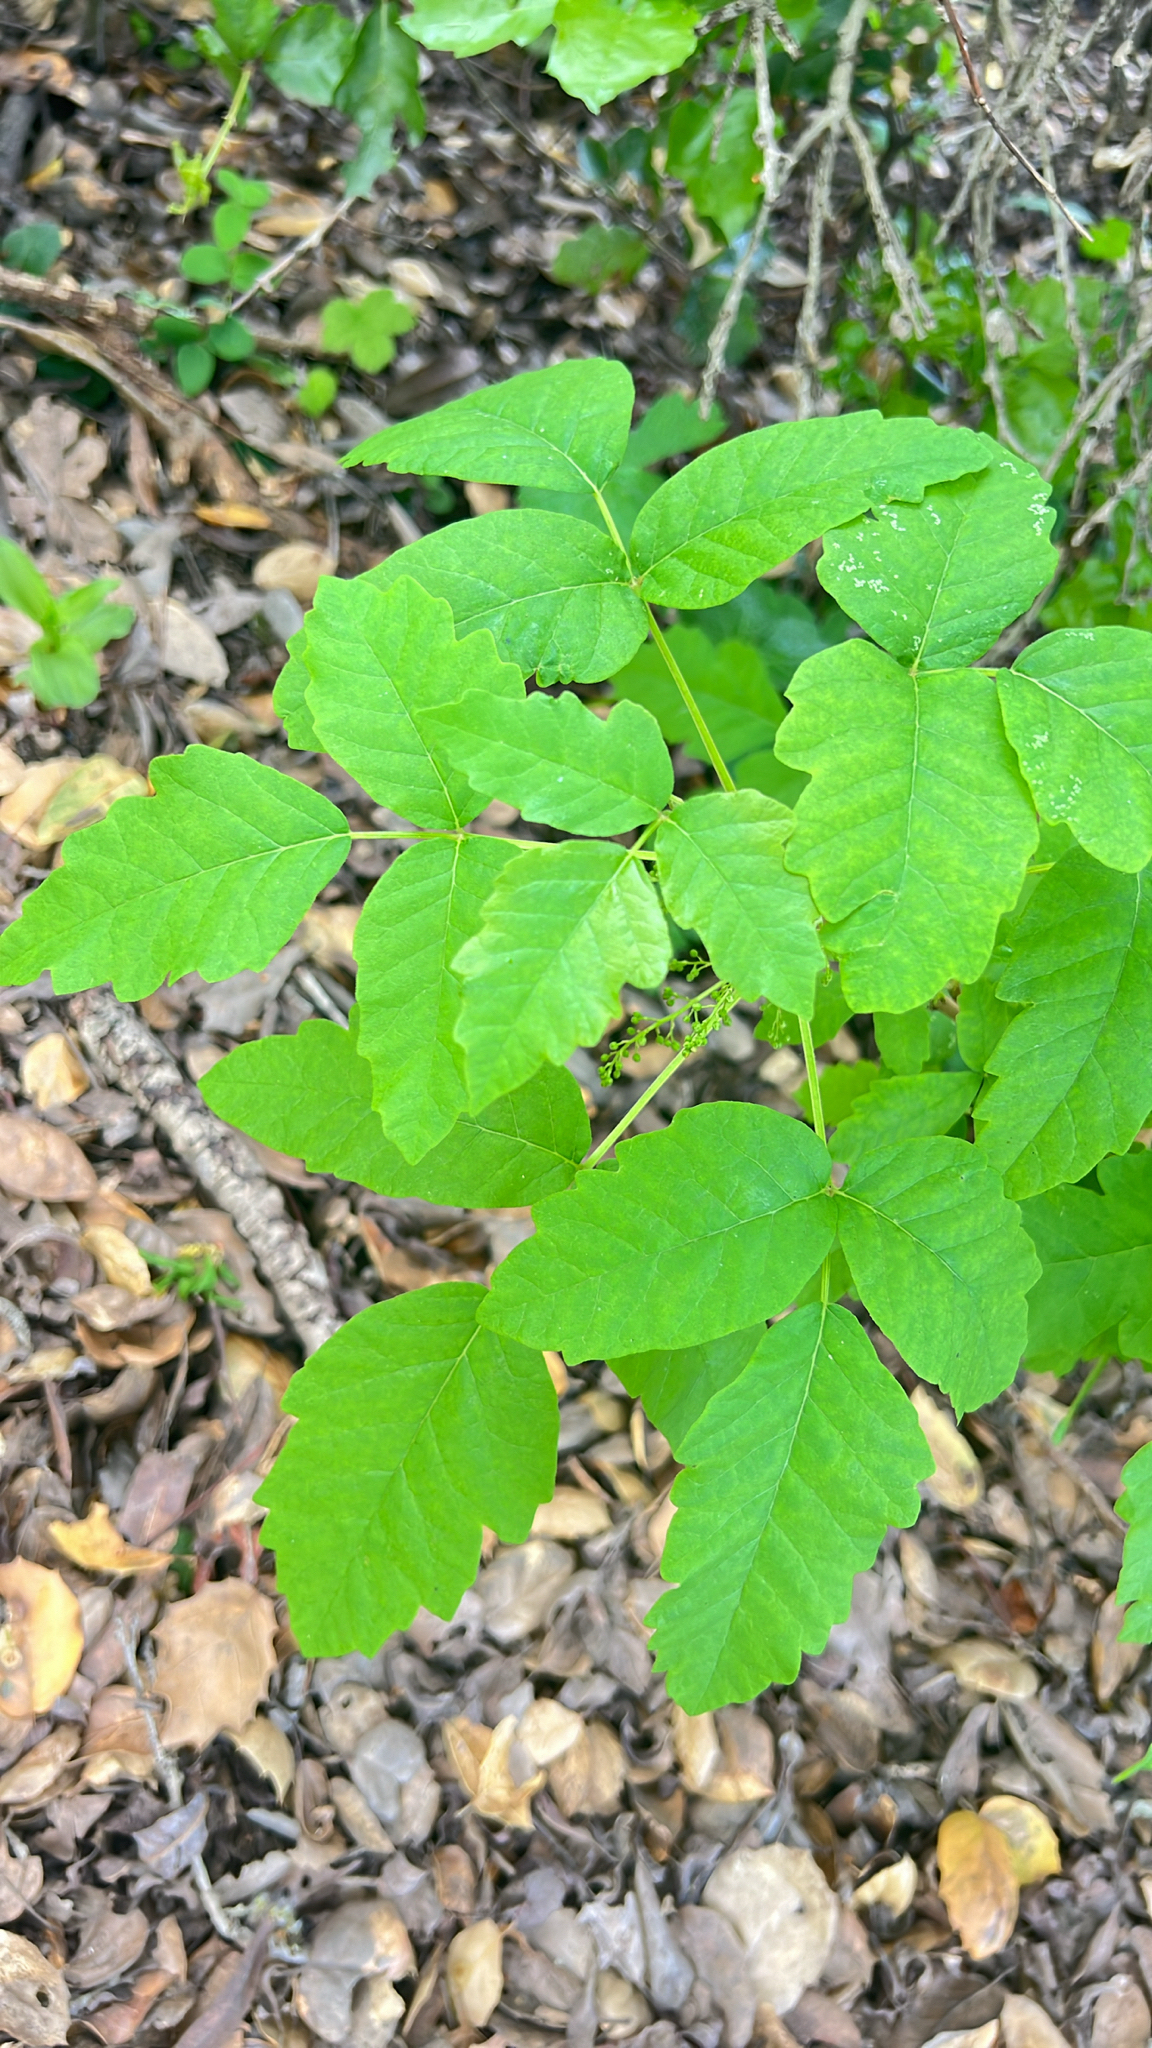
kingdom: Plantae
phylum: Tracheophyta
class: Magnoliopsida
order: Sapindales
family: Anacardiaceae
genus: Toxicodendron
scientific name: Toxicodendron diversilobum
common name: Pacific poison-oak
